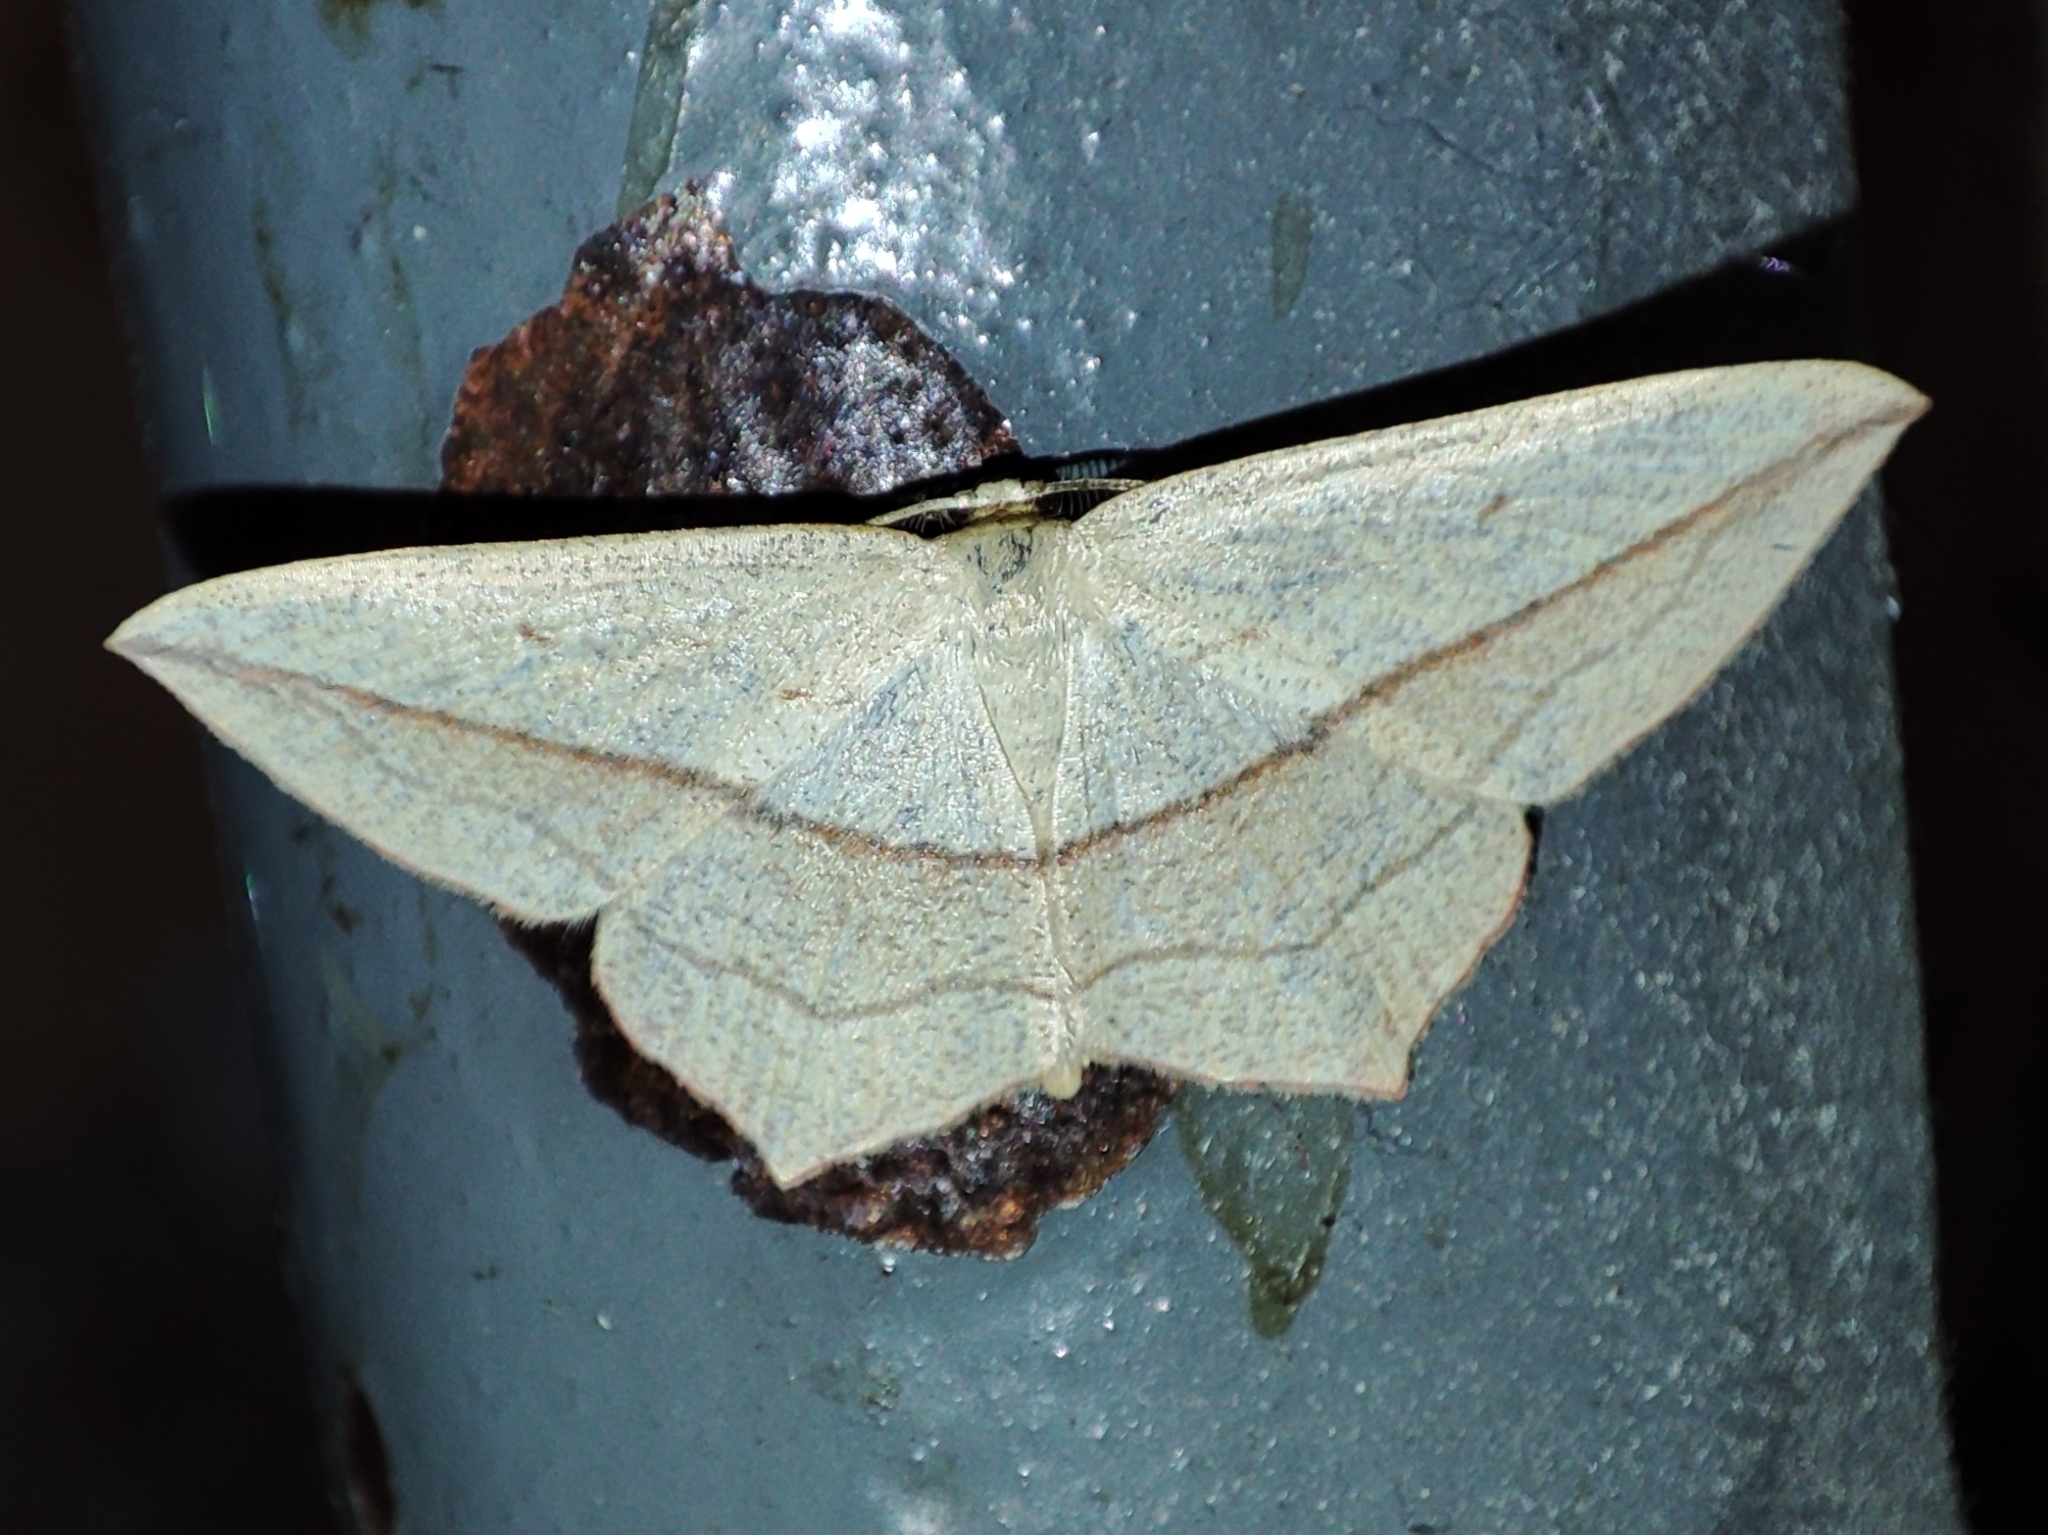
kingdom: Animalia
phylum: Arthropoda
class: Insecta
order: Lepidoptera
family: Geometridae
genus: Timandra
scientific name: Timandra comae
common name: Blood-vein
